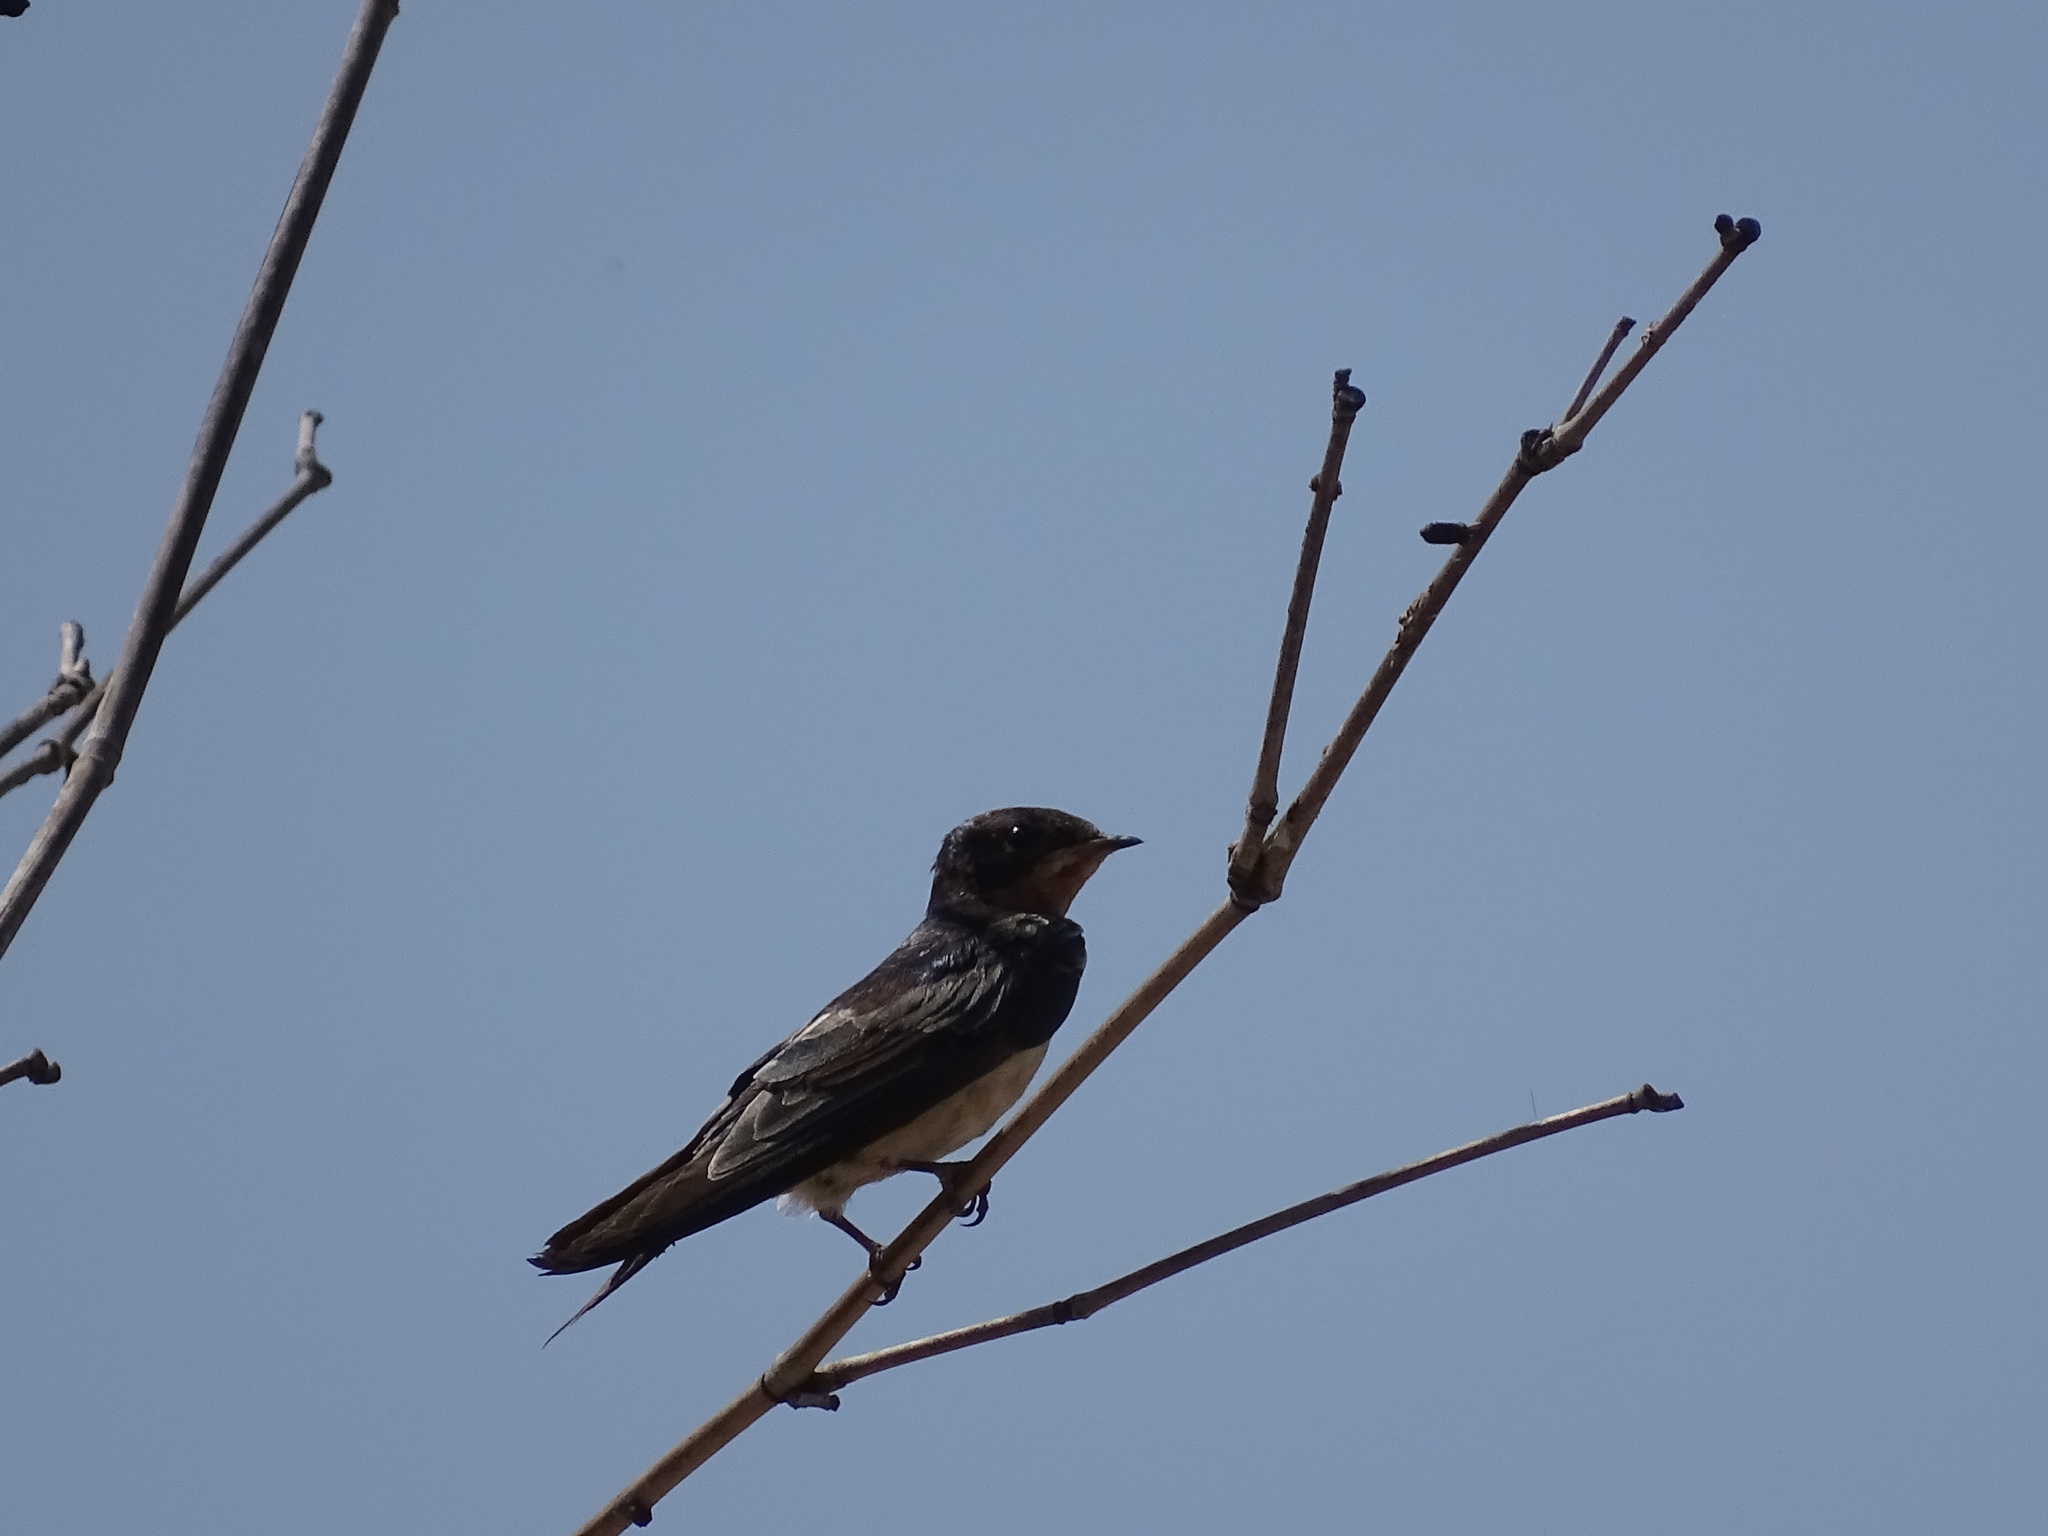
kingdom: Animalia
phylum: Chordata
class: Aves
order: Passeriformes
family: Hirundinidae
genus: Hirundo
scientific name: Hirundo rustica
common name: Barn swallow
